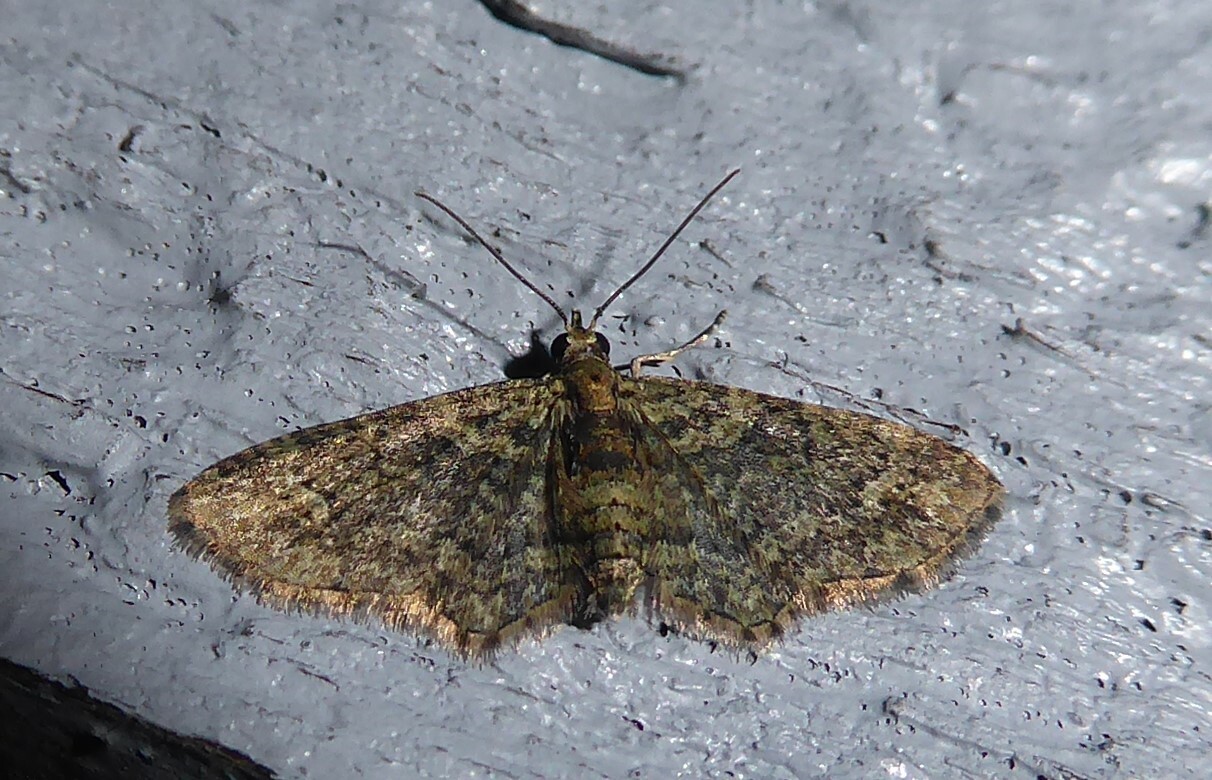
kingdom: Animalia
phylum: Arthropoda
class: Insecta
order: Lepidoptera
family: Geometridae
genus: Pasiphilodes
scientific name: Pasiphilodes testulata
